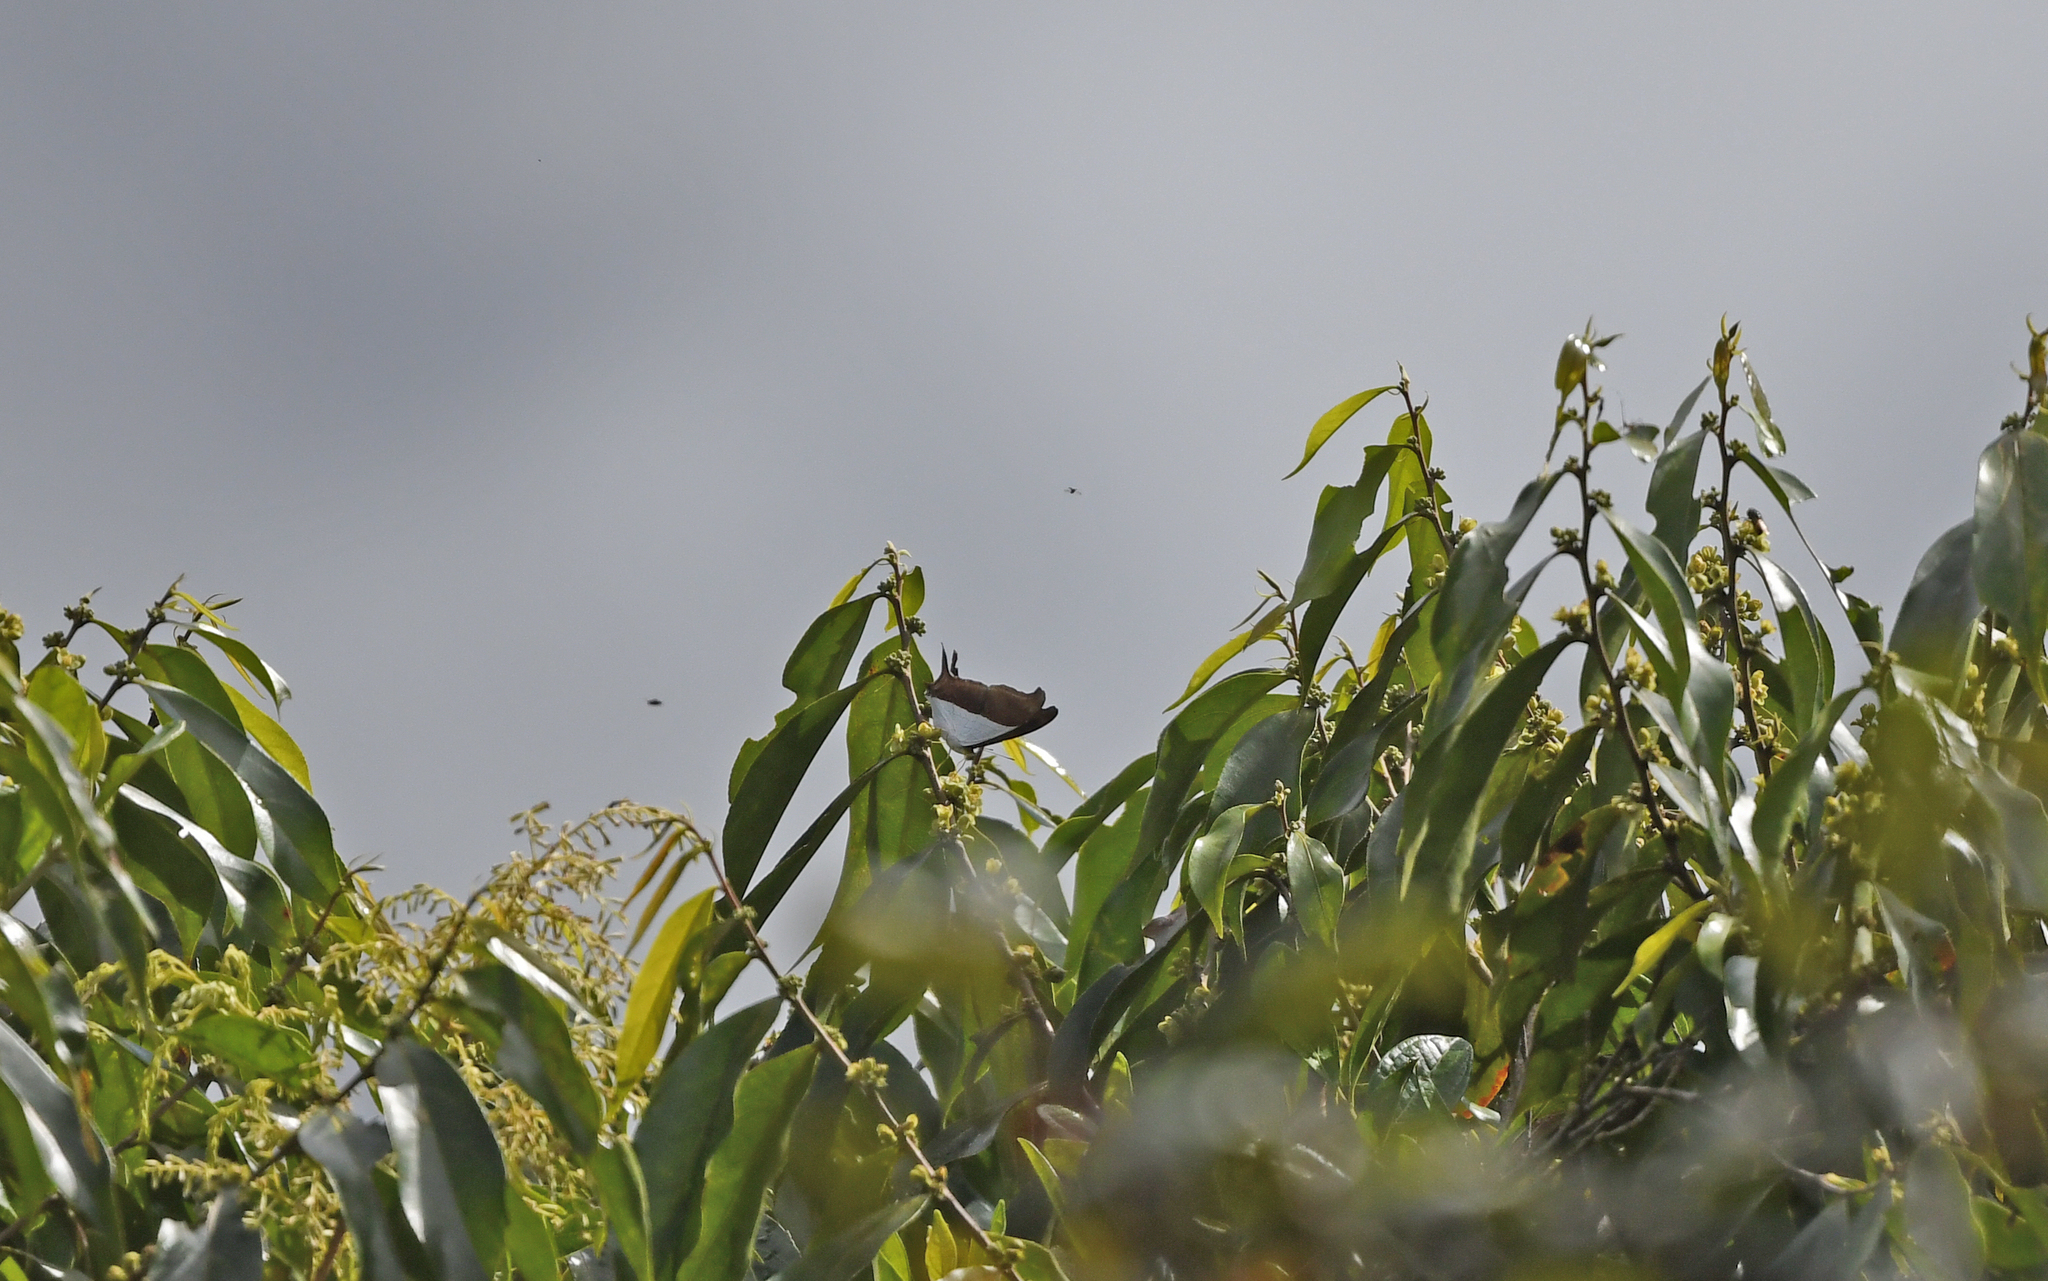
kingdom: Animalia
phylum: Arthropoda
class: Insecta
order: Lepidoptera
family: Nymphalidae
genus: Marpesia
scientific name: Marpesia zerynthia
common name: Waiter daggerwing
